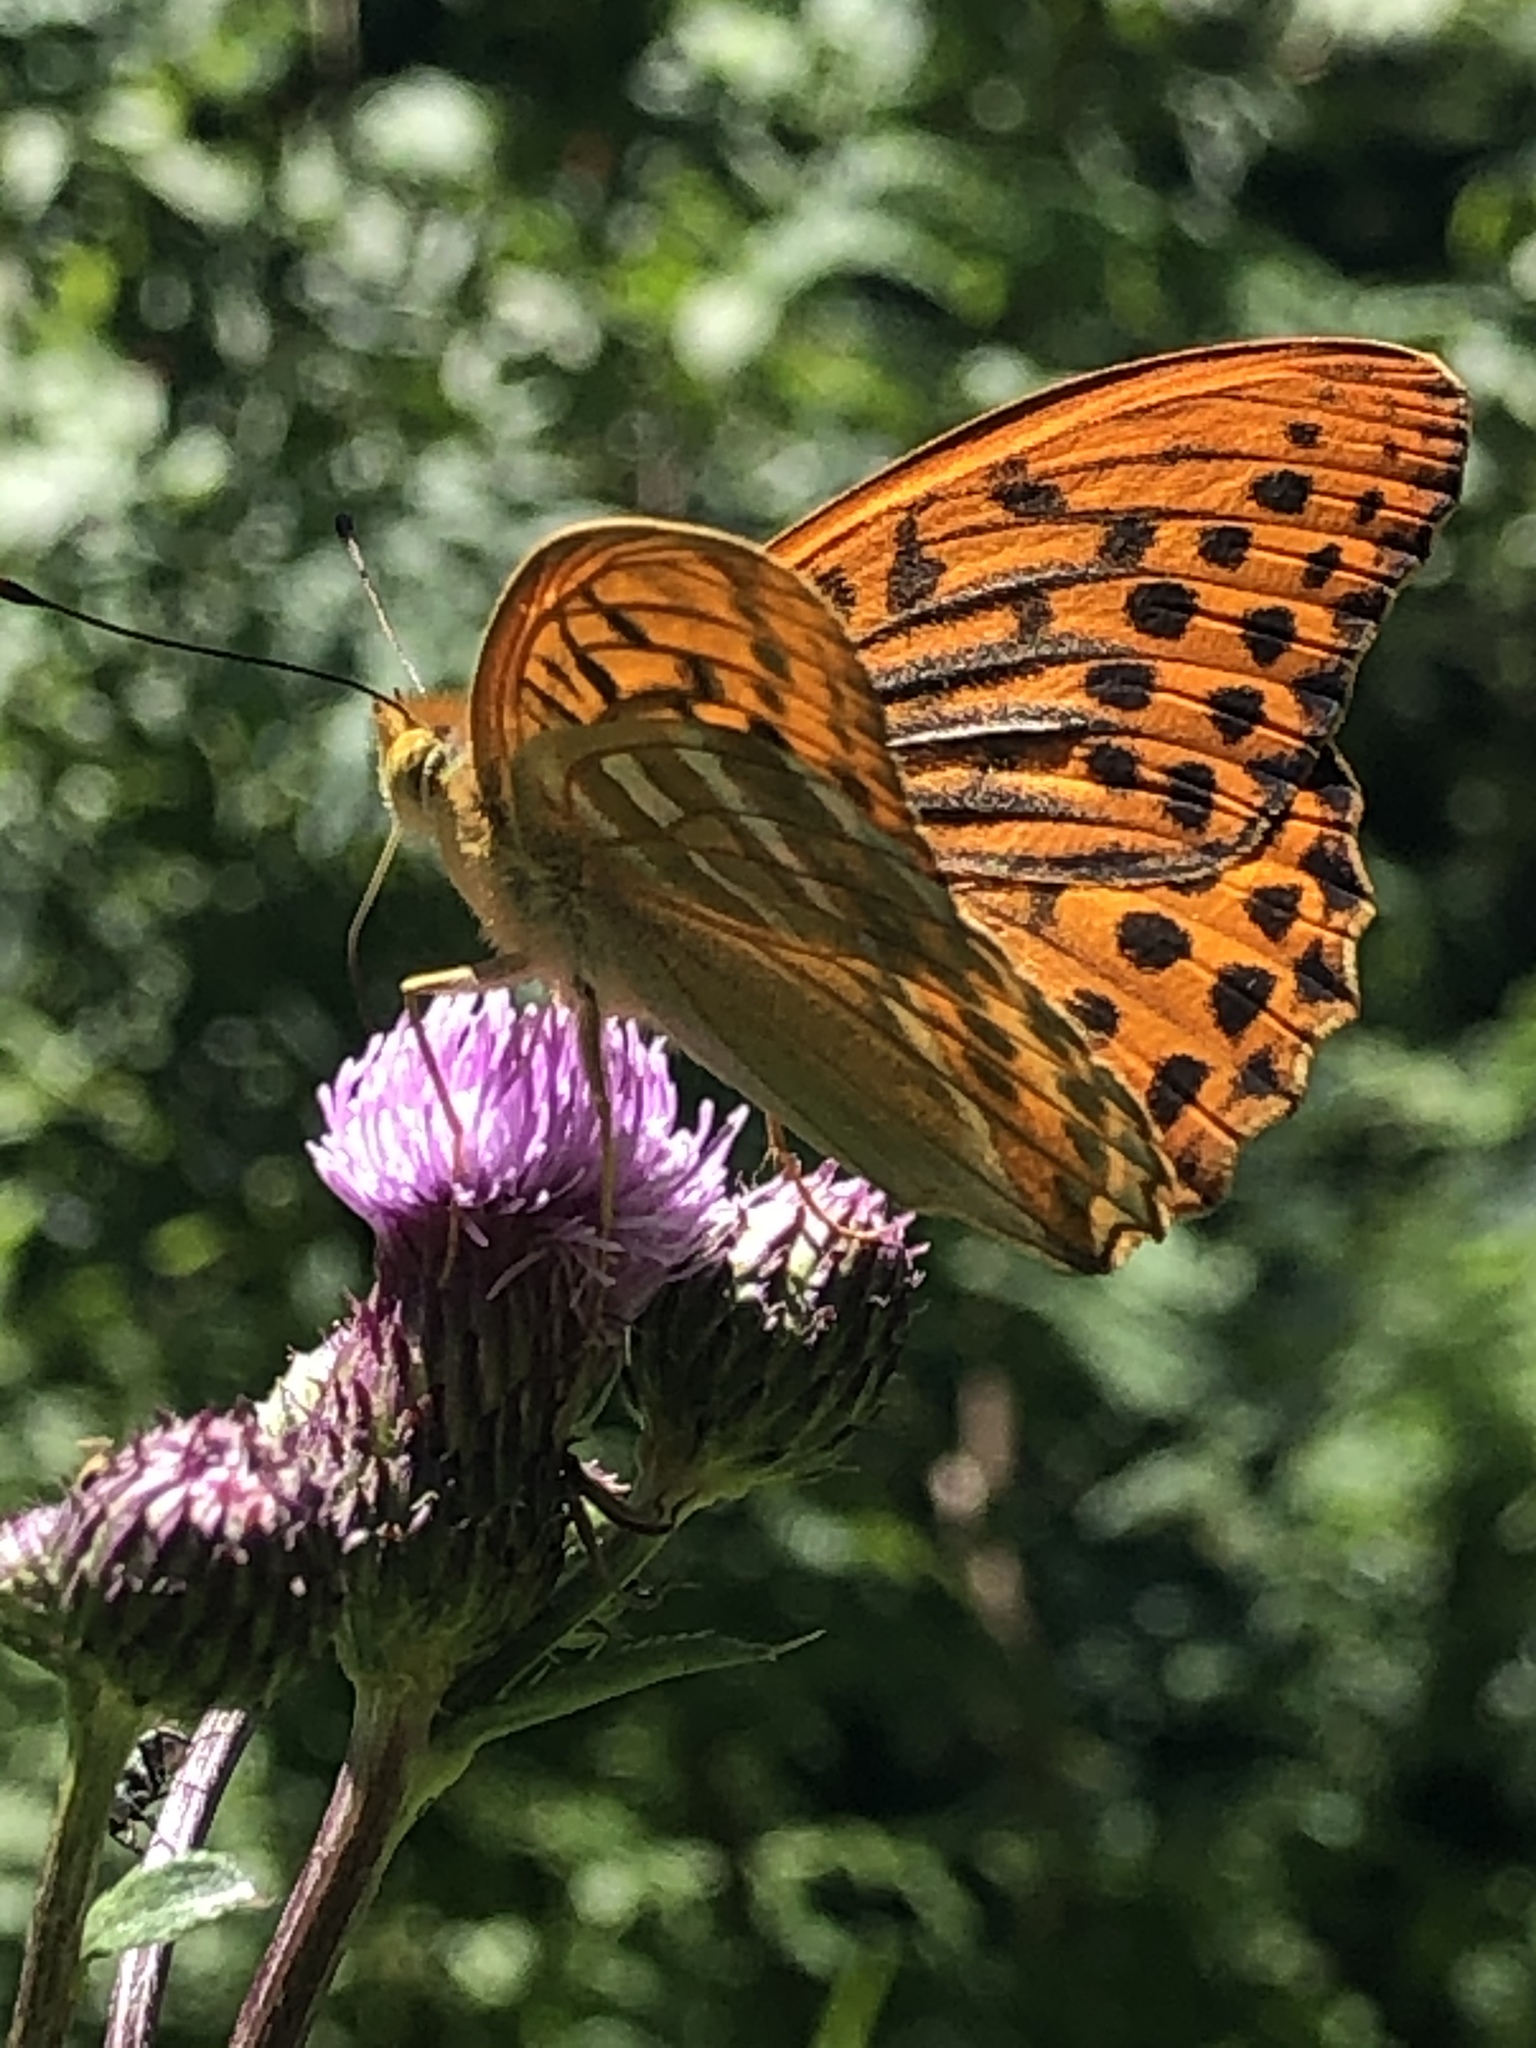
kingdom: Animalia
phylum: Arthropoda
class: Insecta
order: Lepidoptera
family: Nymphalidae
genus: Argynnis
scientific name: Argynnis paphia
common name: Silver-washed fritillary
